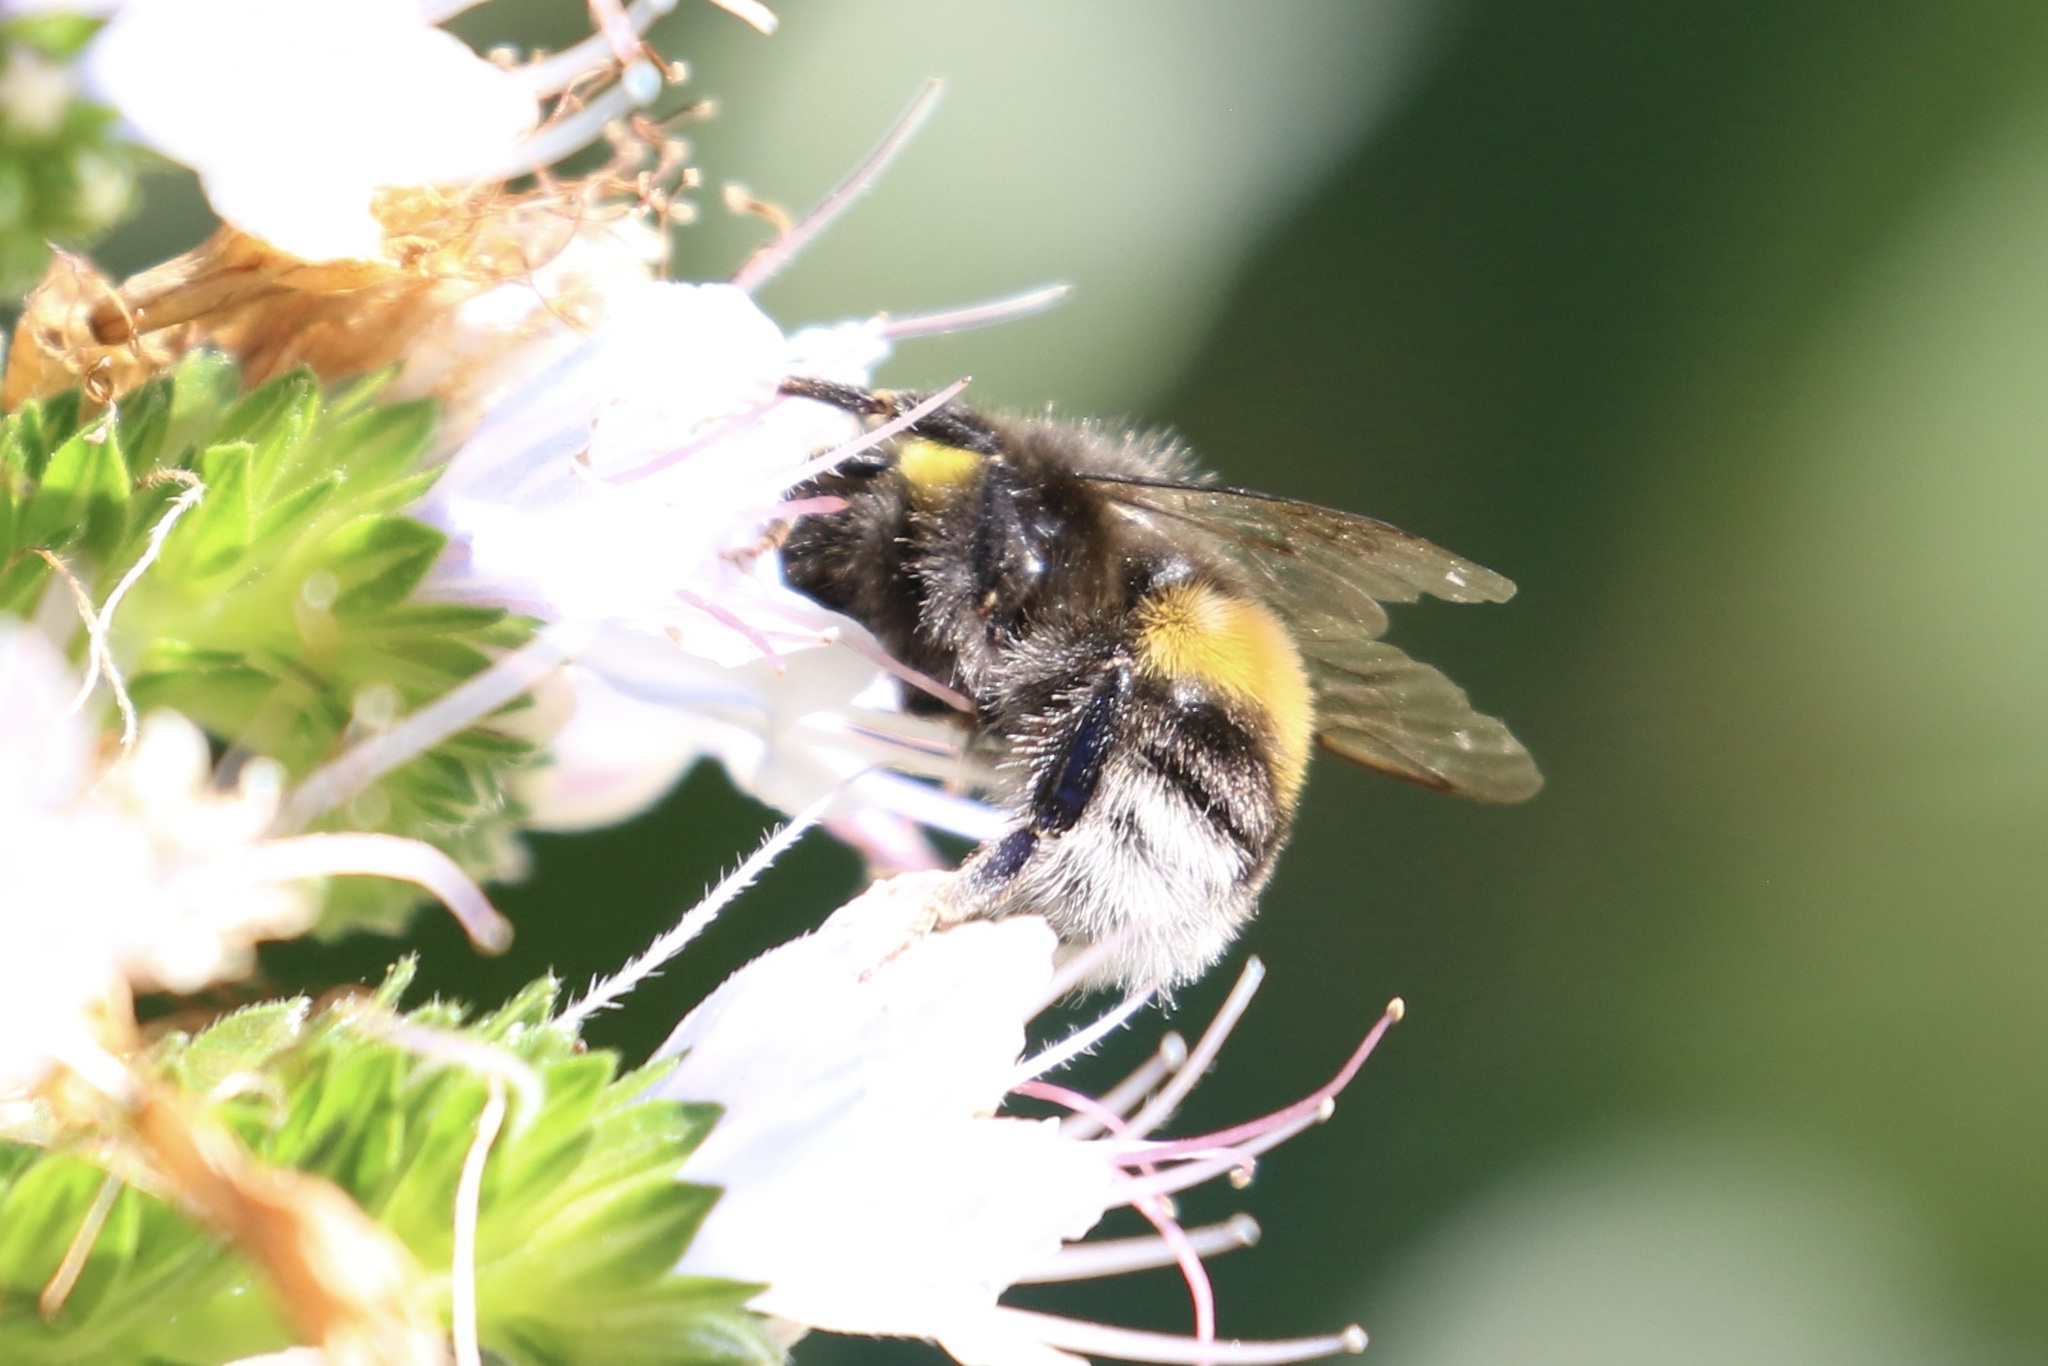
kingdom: Animalia
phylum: Arthropoda
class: Insecta
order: Hymenoptera
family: Apidae
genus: Bombus
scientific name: Bombus terrestris
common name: Buff-tailed bumblebee
